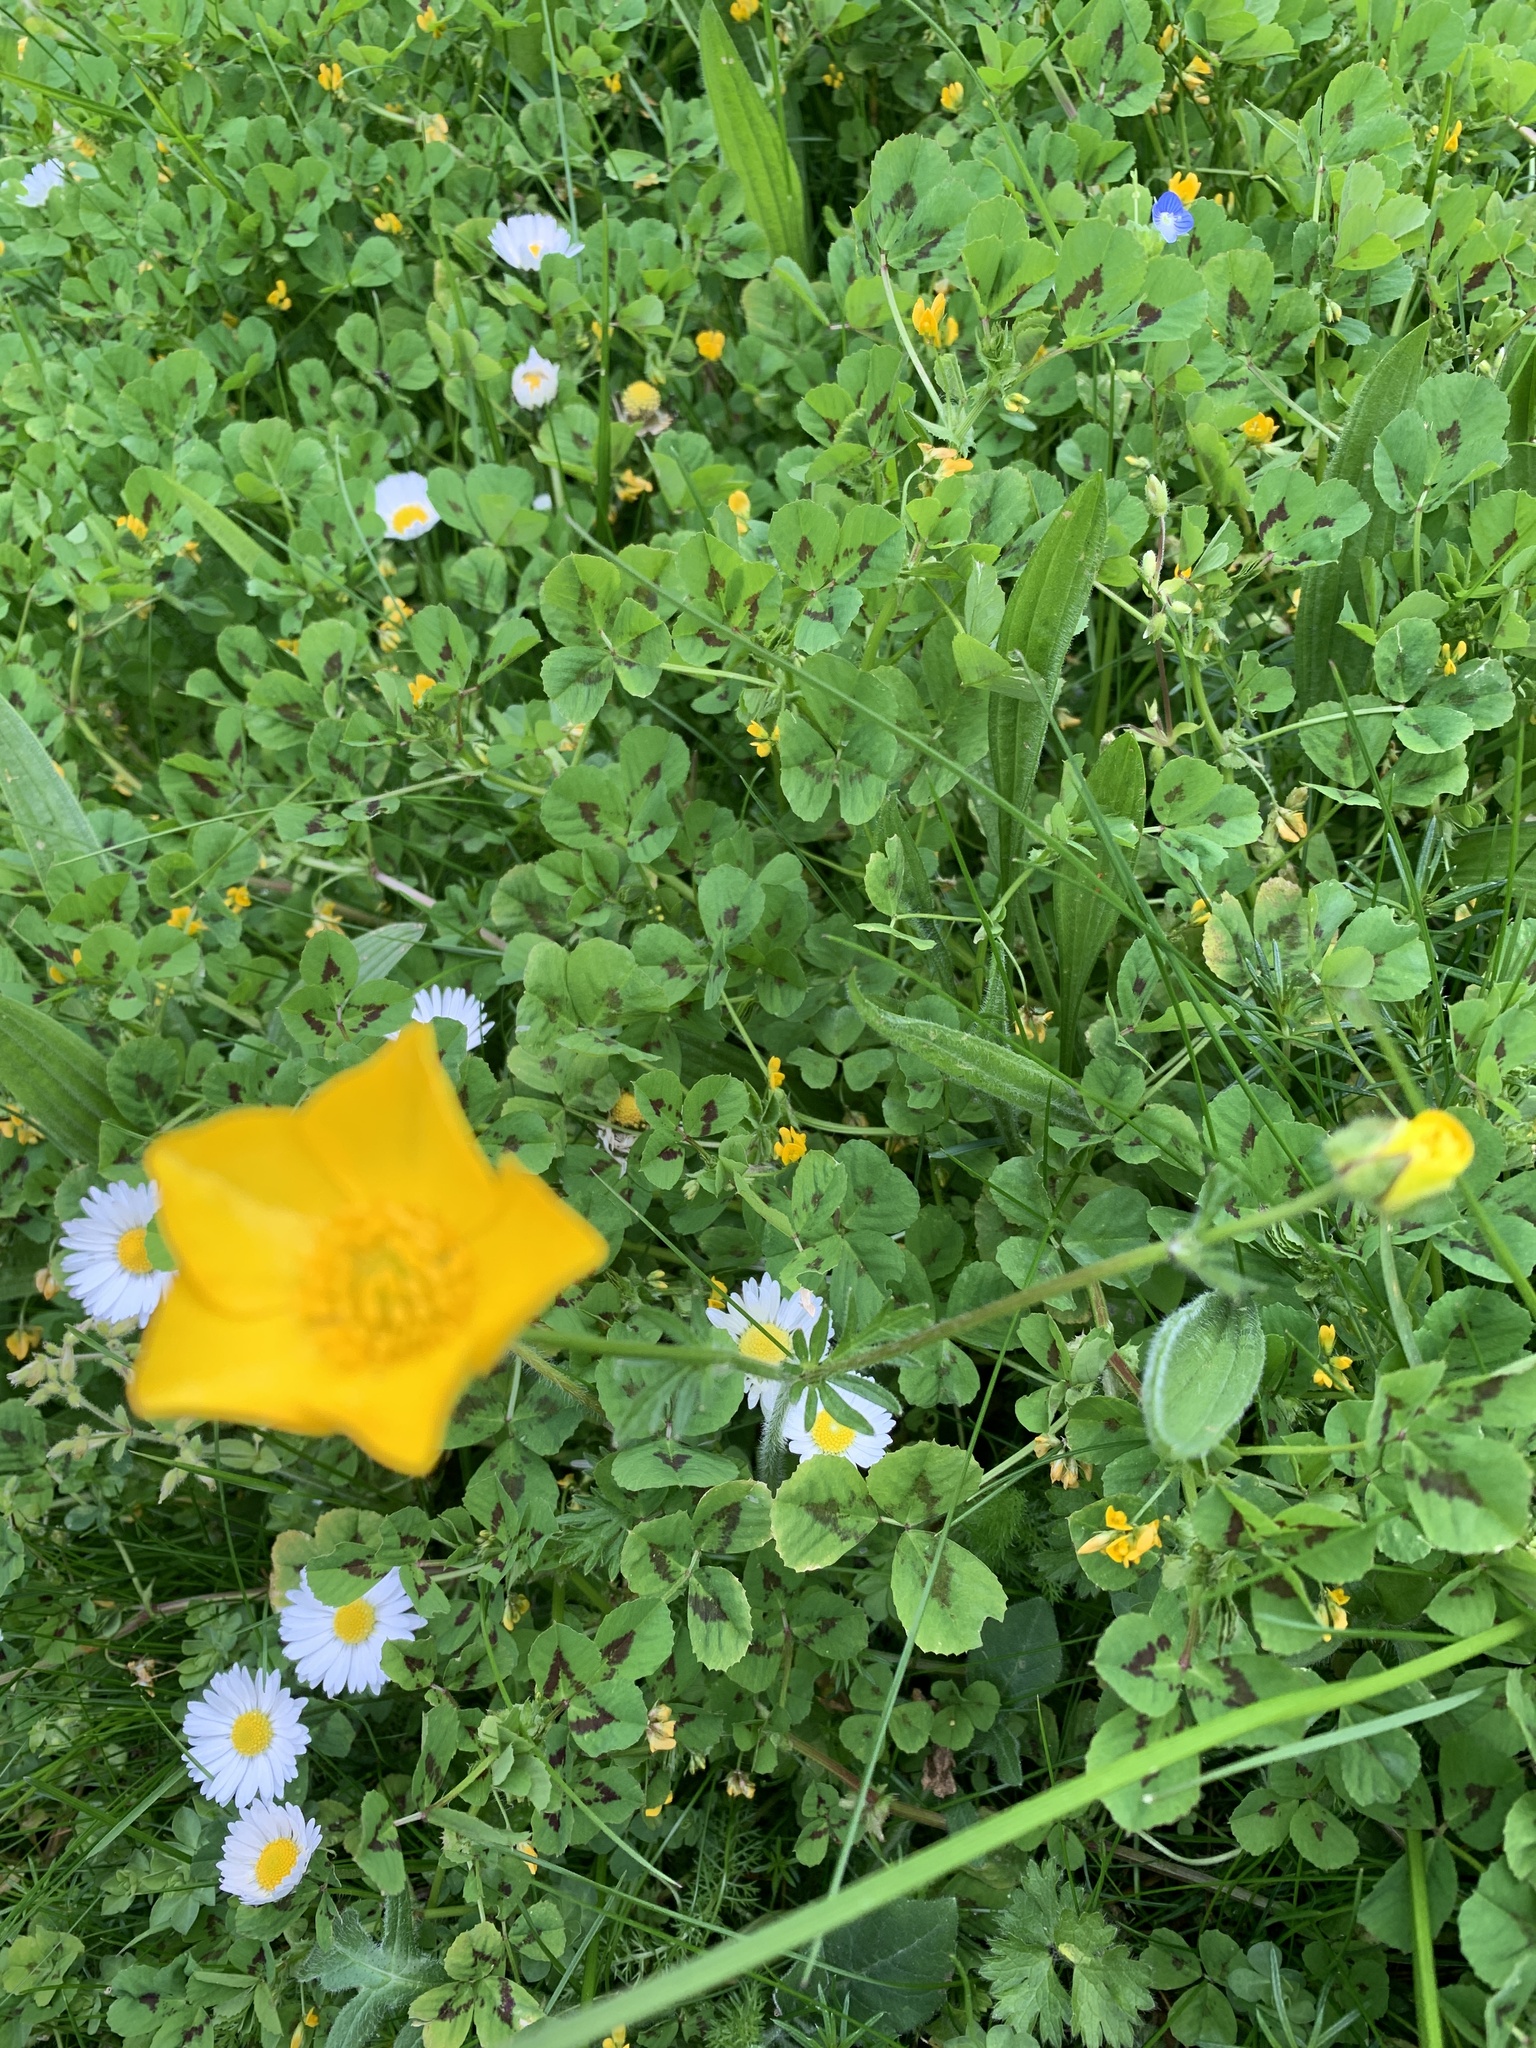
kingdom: Plantae
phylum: Tracheophyta
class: Magnoliopsida
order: Ranunculales
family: Ranunculaceae
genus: Ranunculus
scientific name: Ranunculus acris
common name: Meadow buttercup
